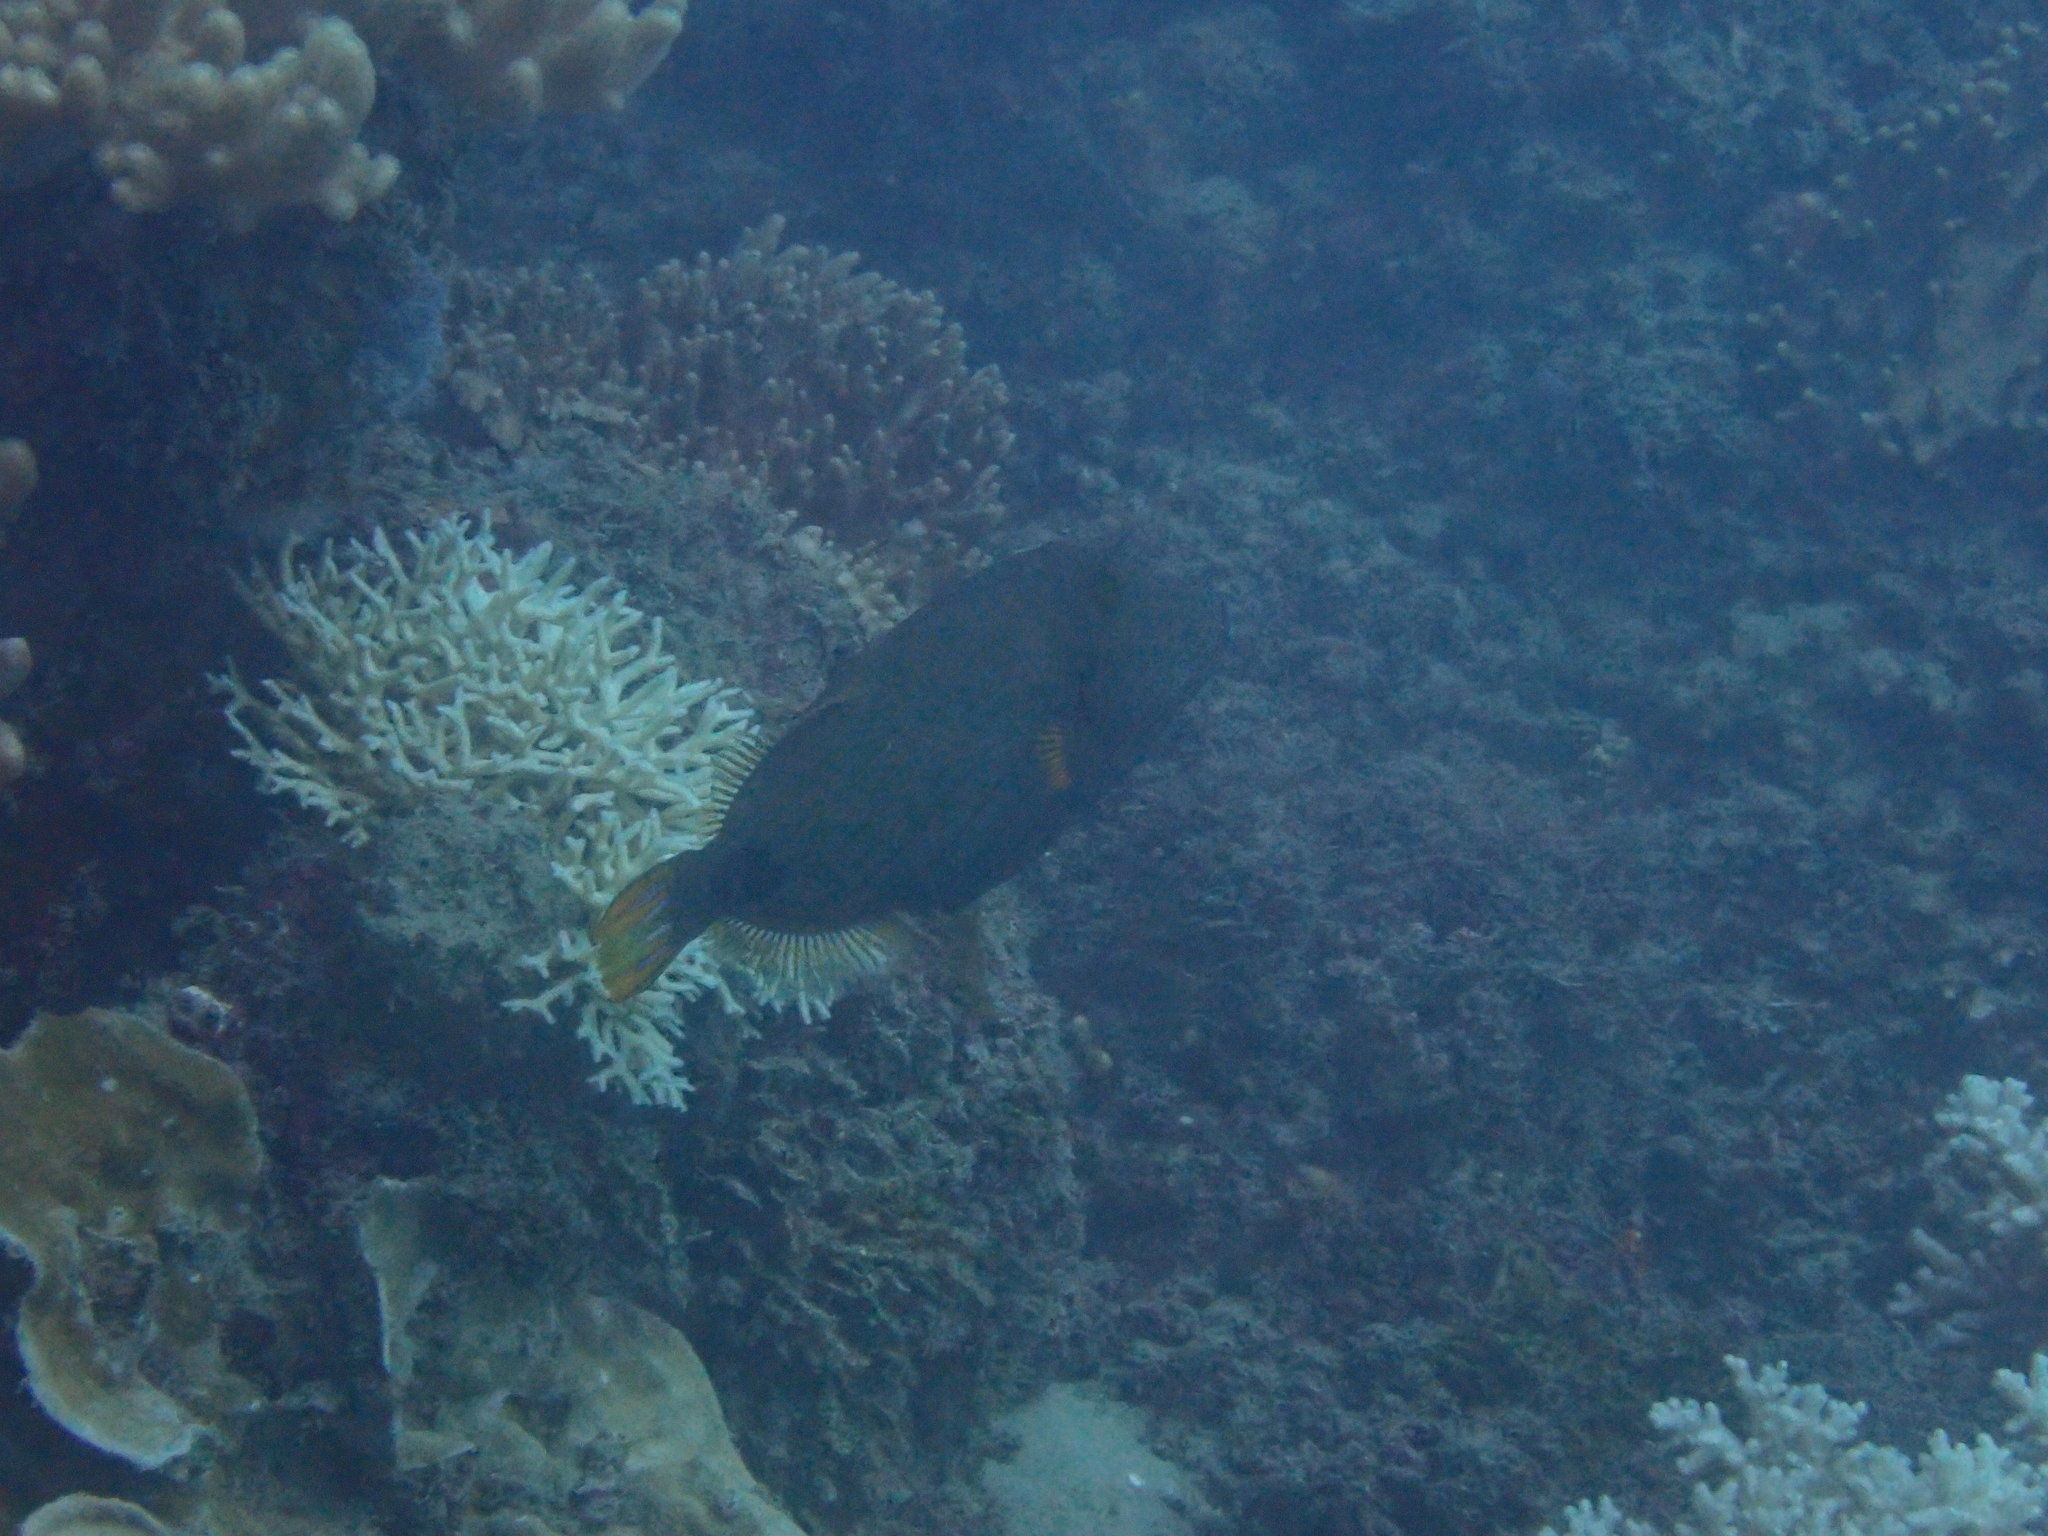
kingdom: Animalia
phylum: Chordata
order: Tetraodontiformes
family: Balistidae
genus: Balistapus
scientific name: Balistapus undulatus
